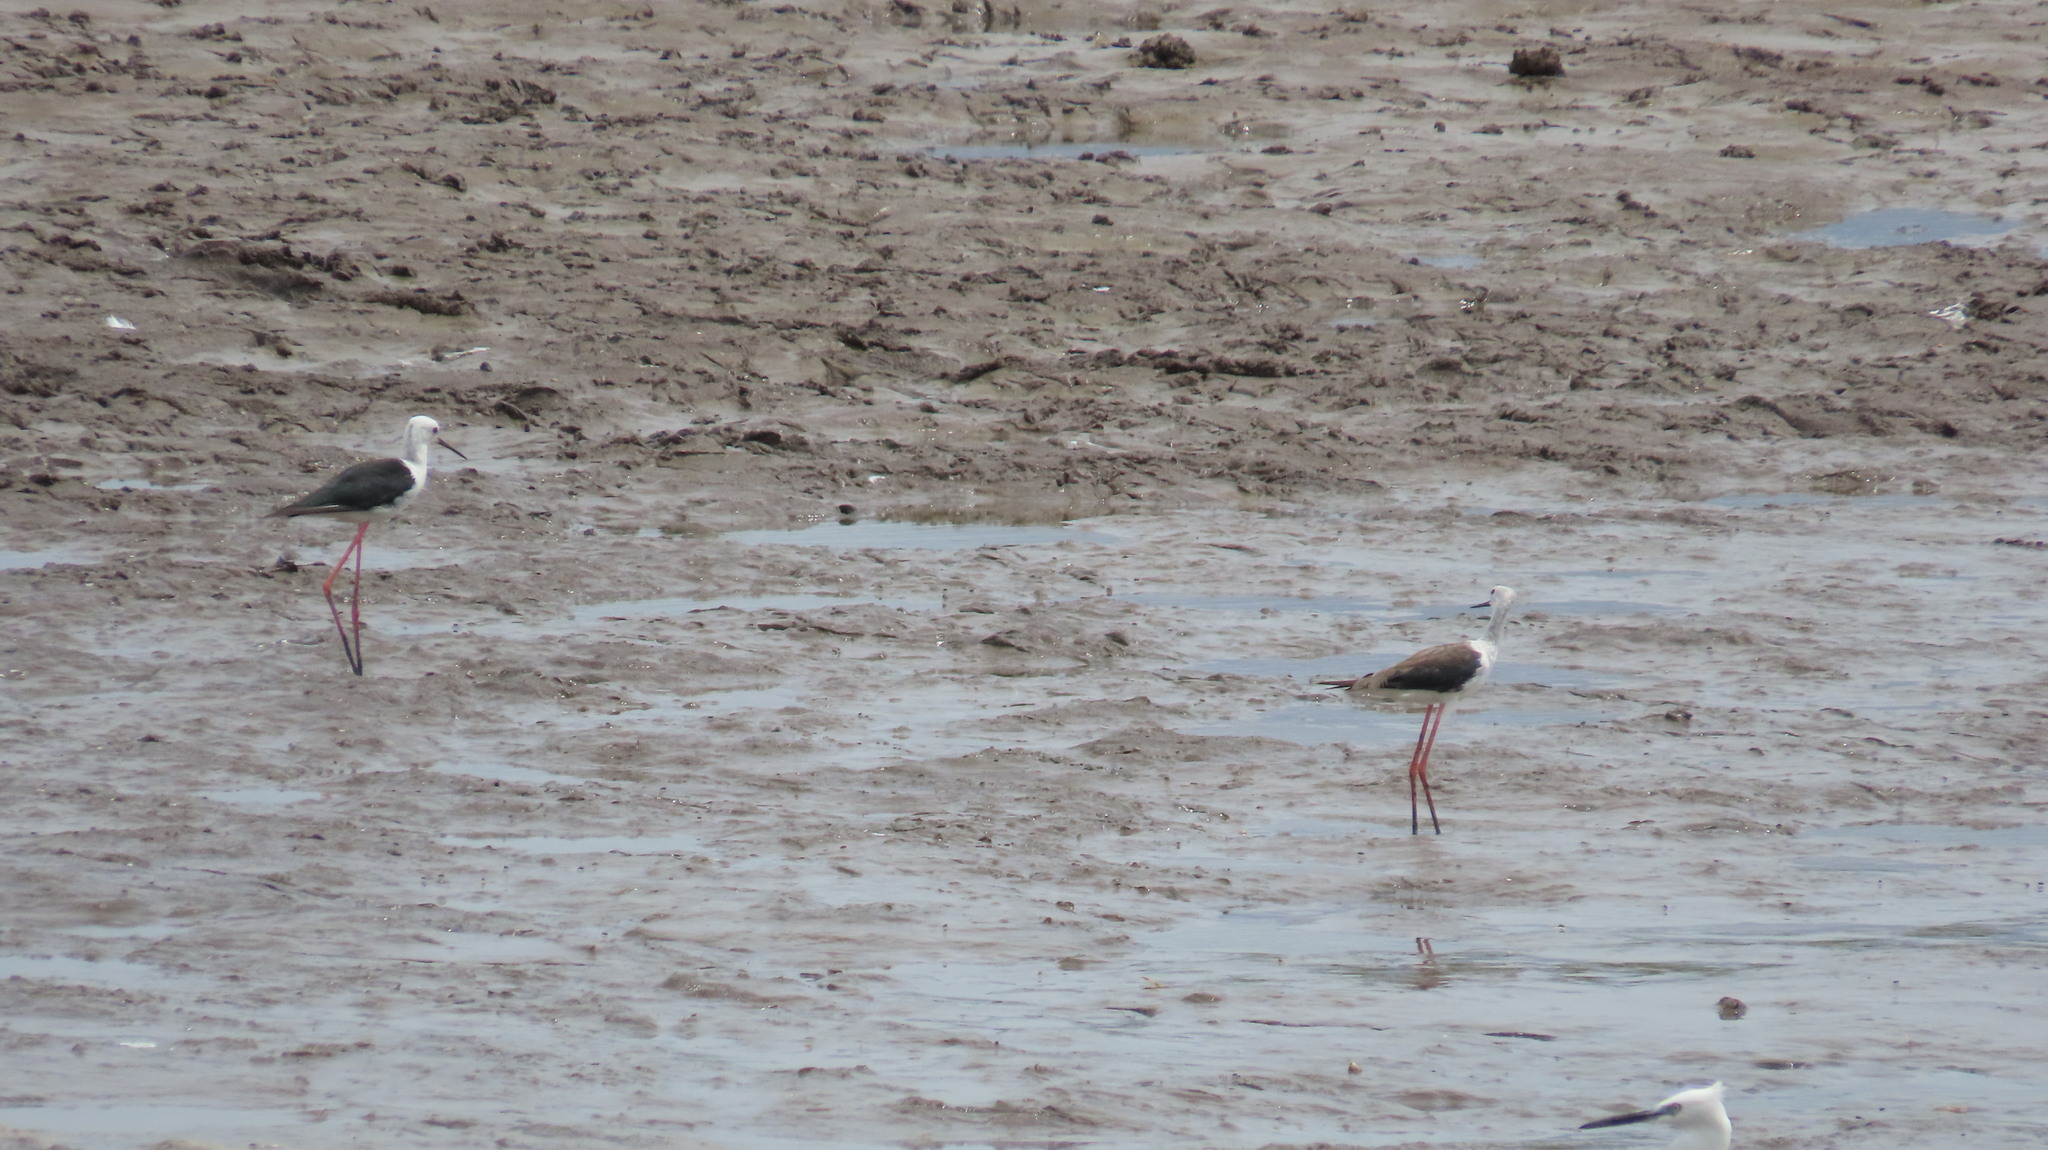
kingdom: Animalia
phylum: Chordata
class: Aves
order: Charadriiformes
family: Recurvirostridae
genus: Himantopus
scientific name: Himantopus himantopus
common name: Black-winged stilt
